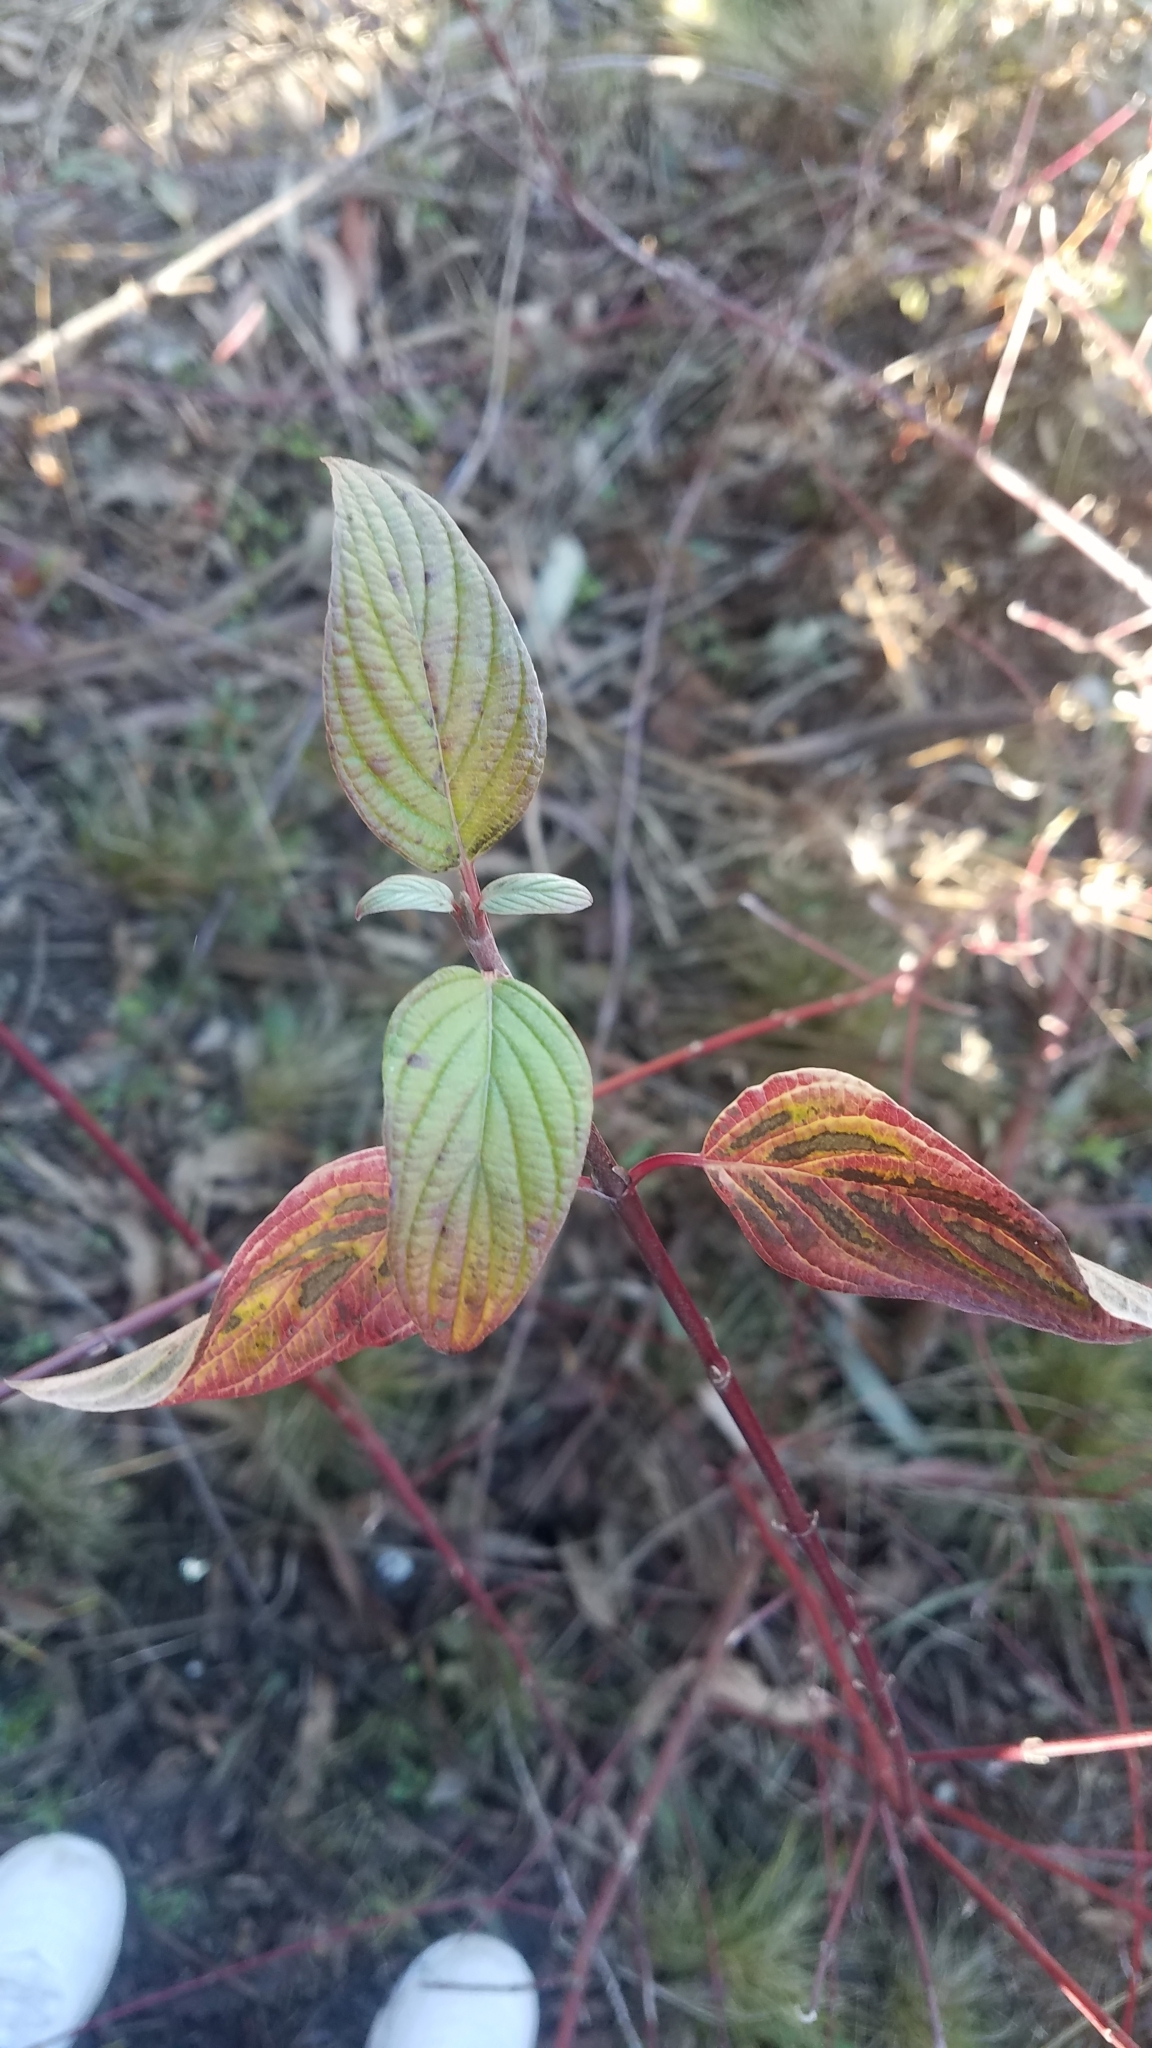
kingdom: Plantae
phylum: Tracheophyta
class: Magnoliopsida
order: Cornales
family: Cornaceae
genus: Cornus
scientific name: Cornus sericea
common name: Red-osier dogwood
